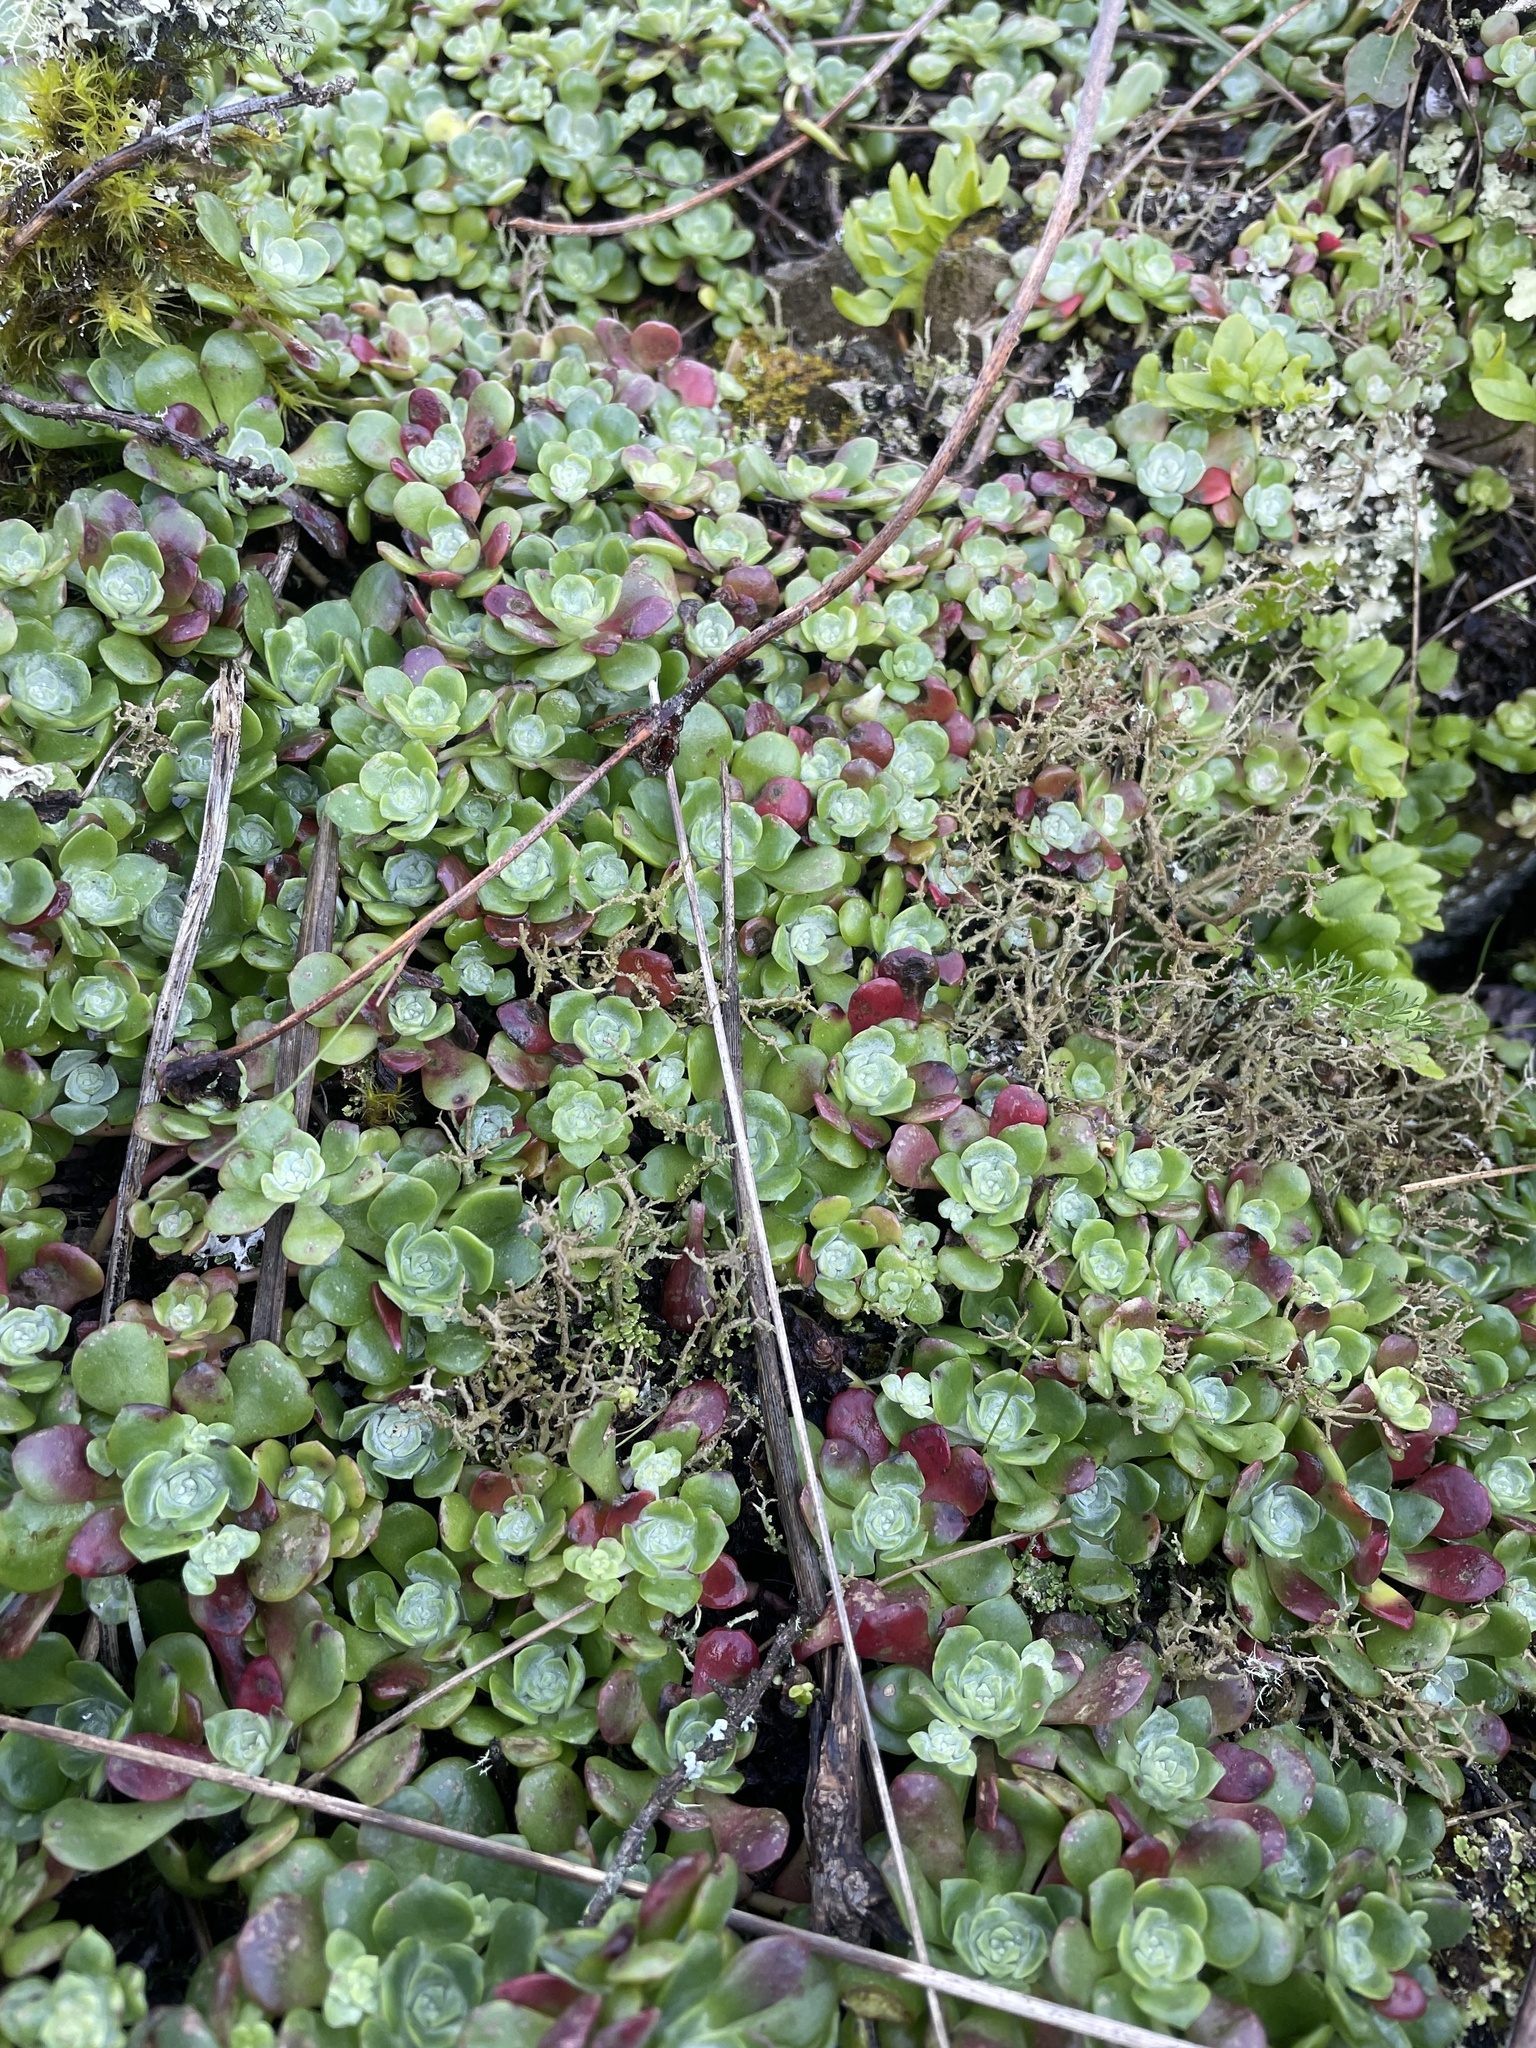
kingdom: Plantae
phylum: Tracheophyta
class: Magnoliopsida
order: Saxifragales
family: Crassulaceae
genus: Sedum
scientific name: Sedum spathulifolium
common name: Colorado stonecrop
